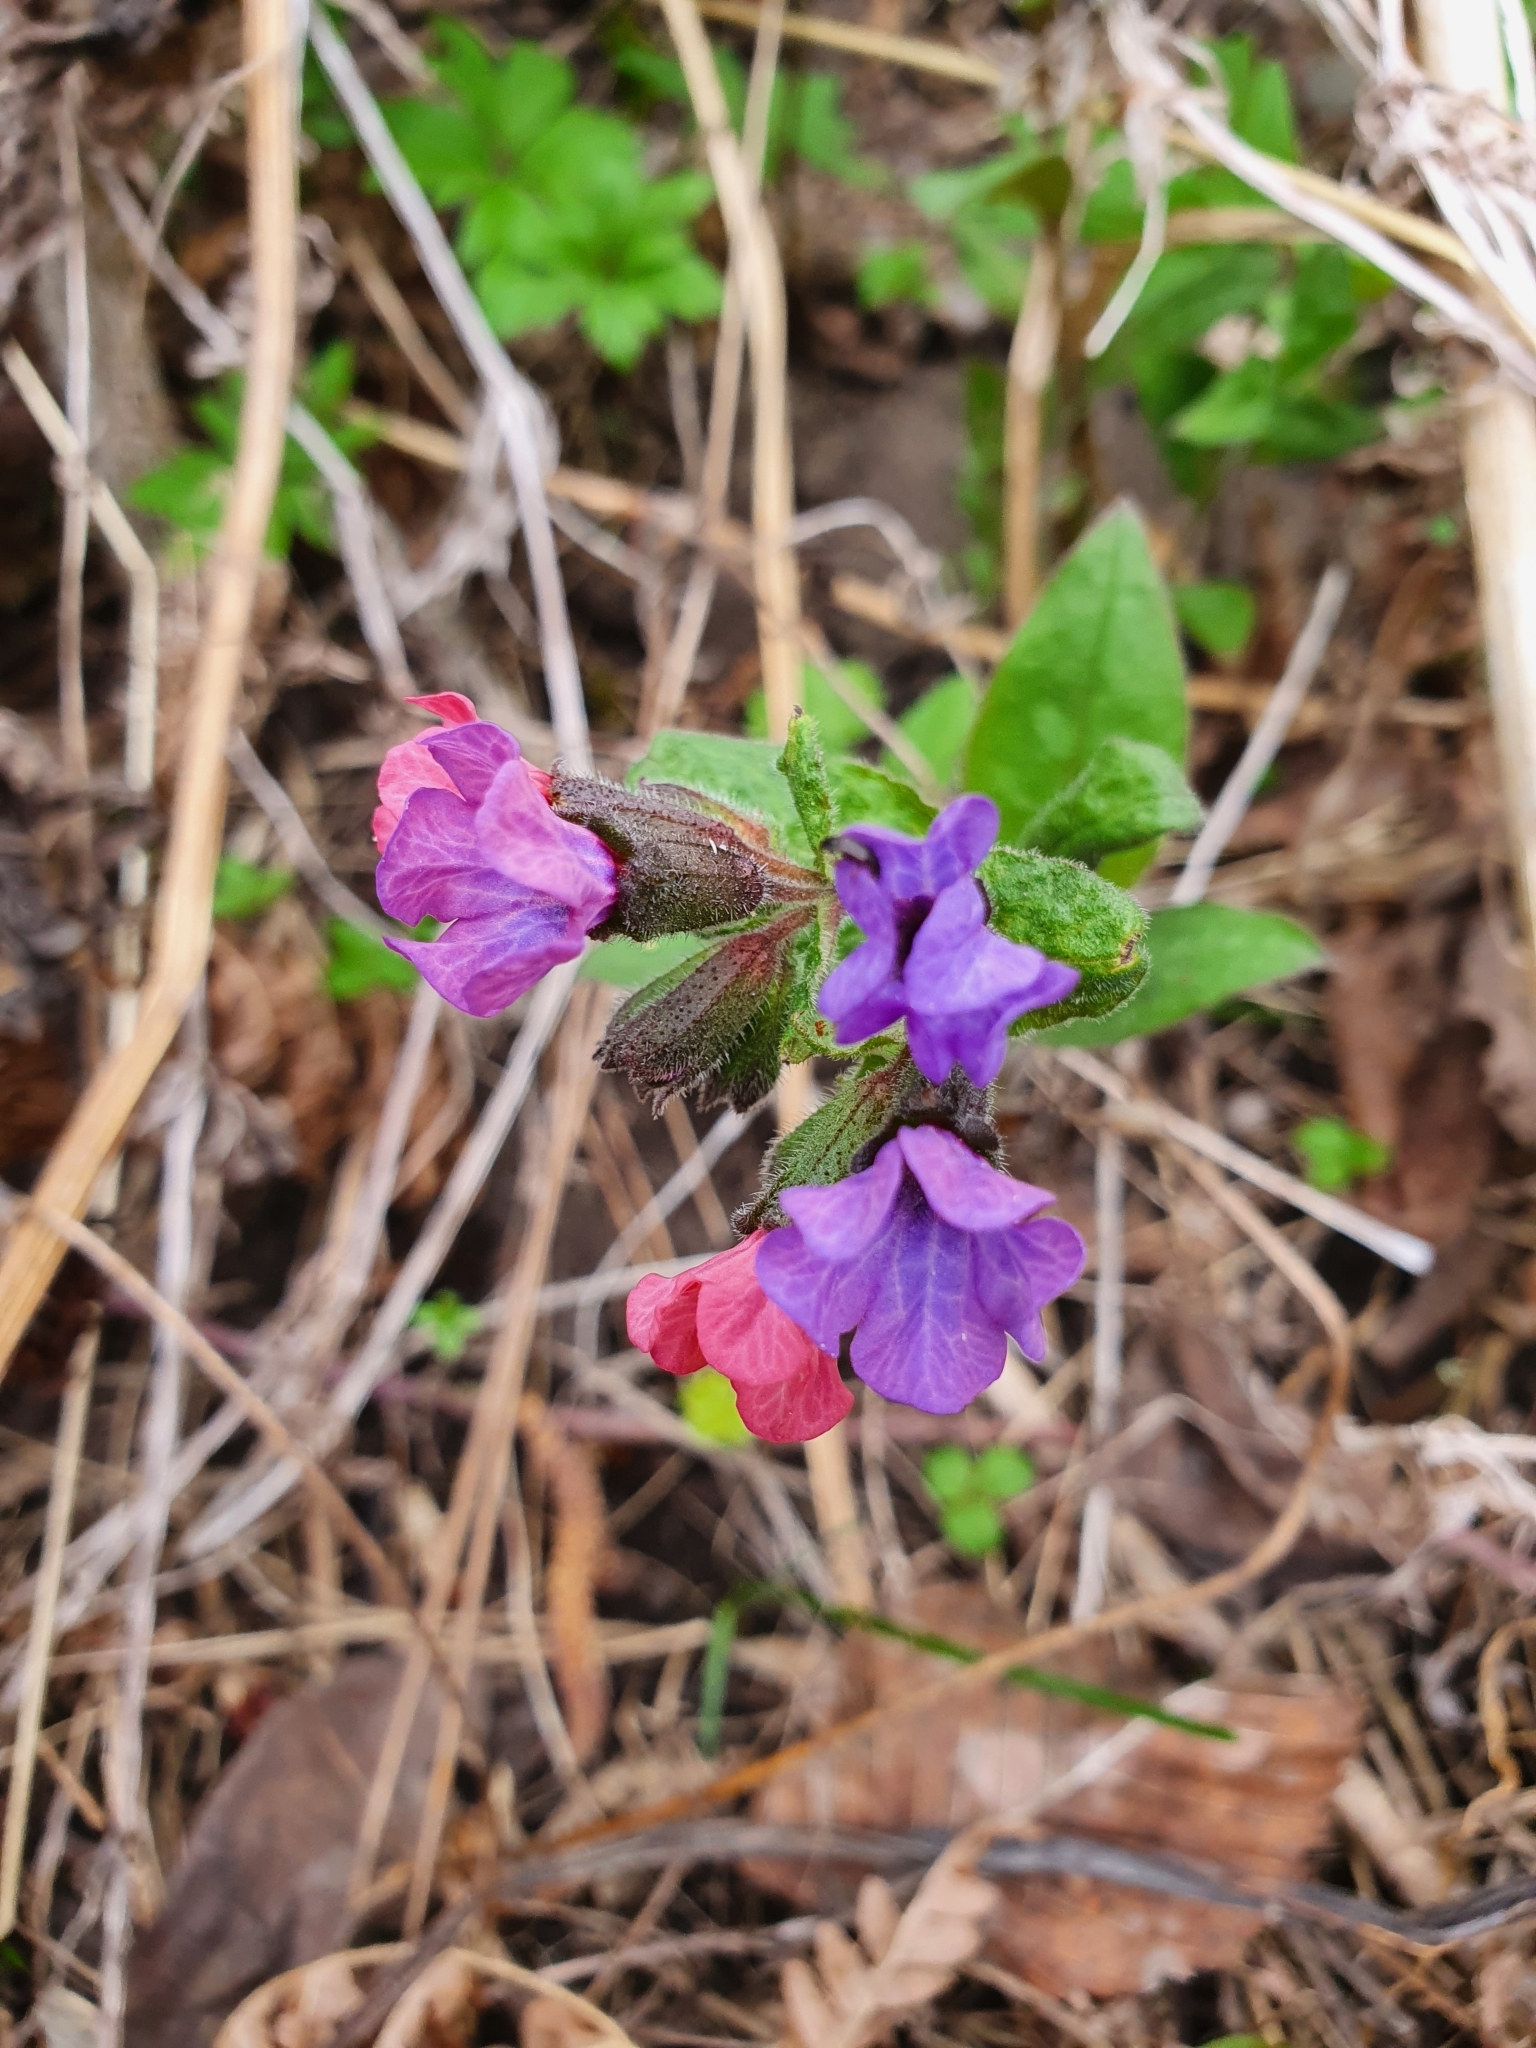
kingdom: Plantae
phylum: Tracheophyta
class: Magnoliopsida
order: Boraginales
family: Boraginaceae
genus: Pulmonaria
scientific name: Pulmonaria obscura
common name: Suffolk lungwort
